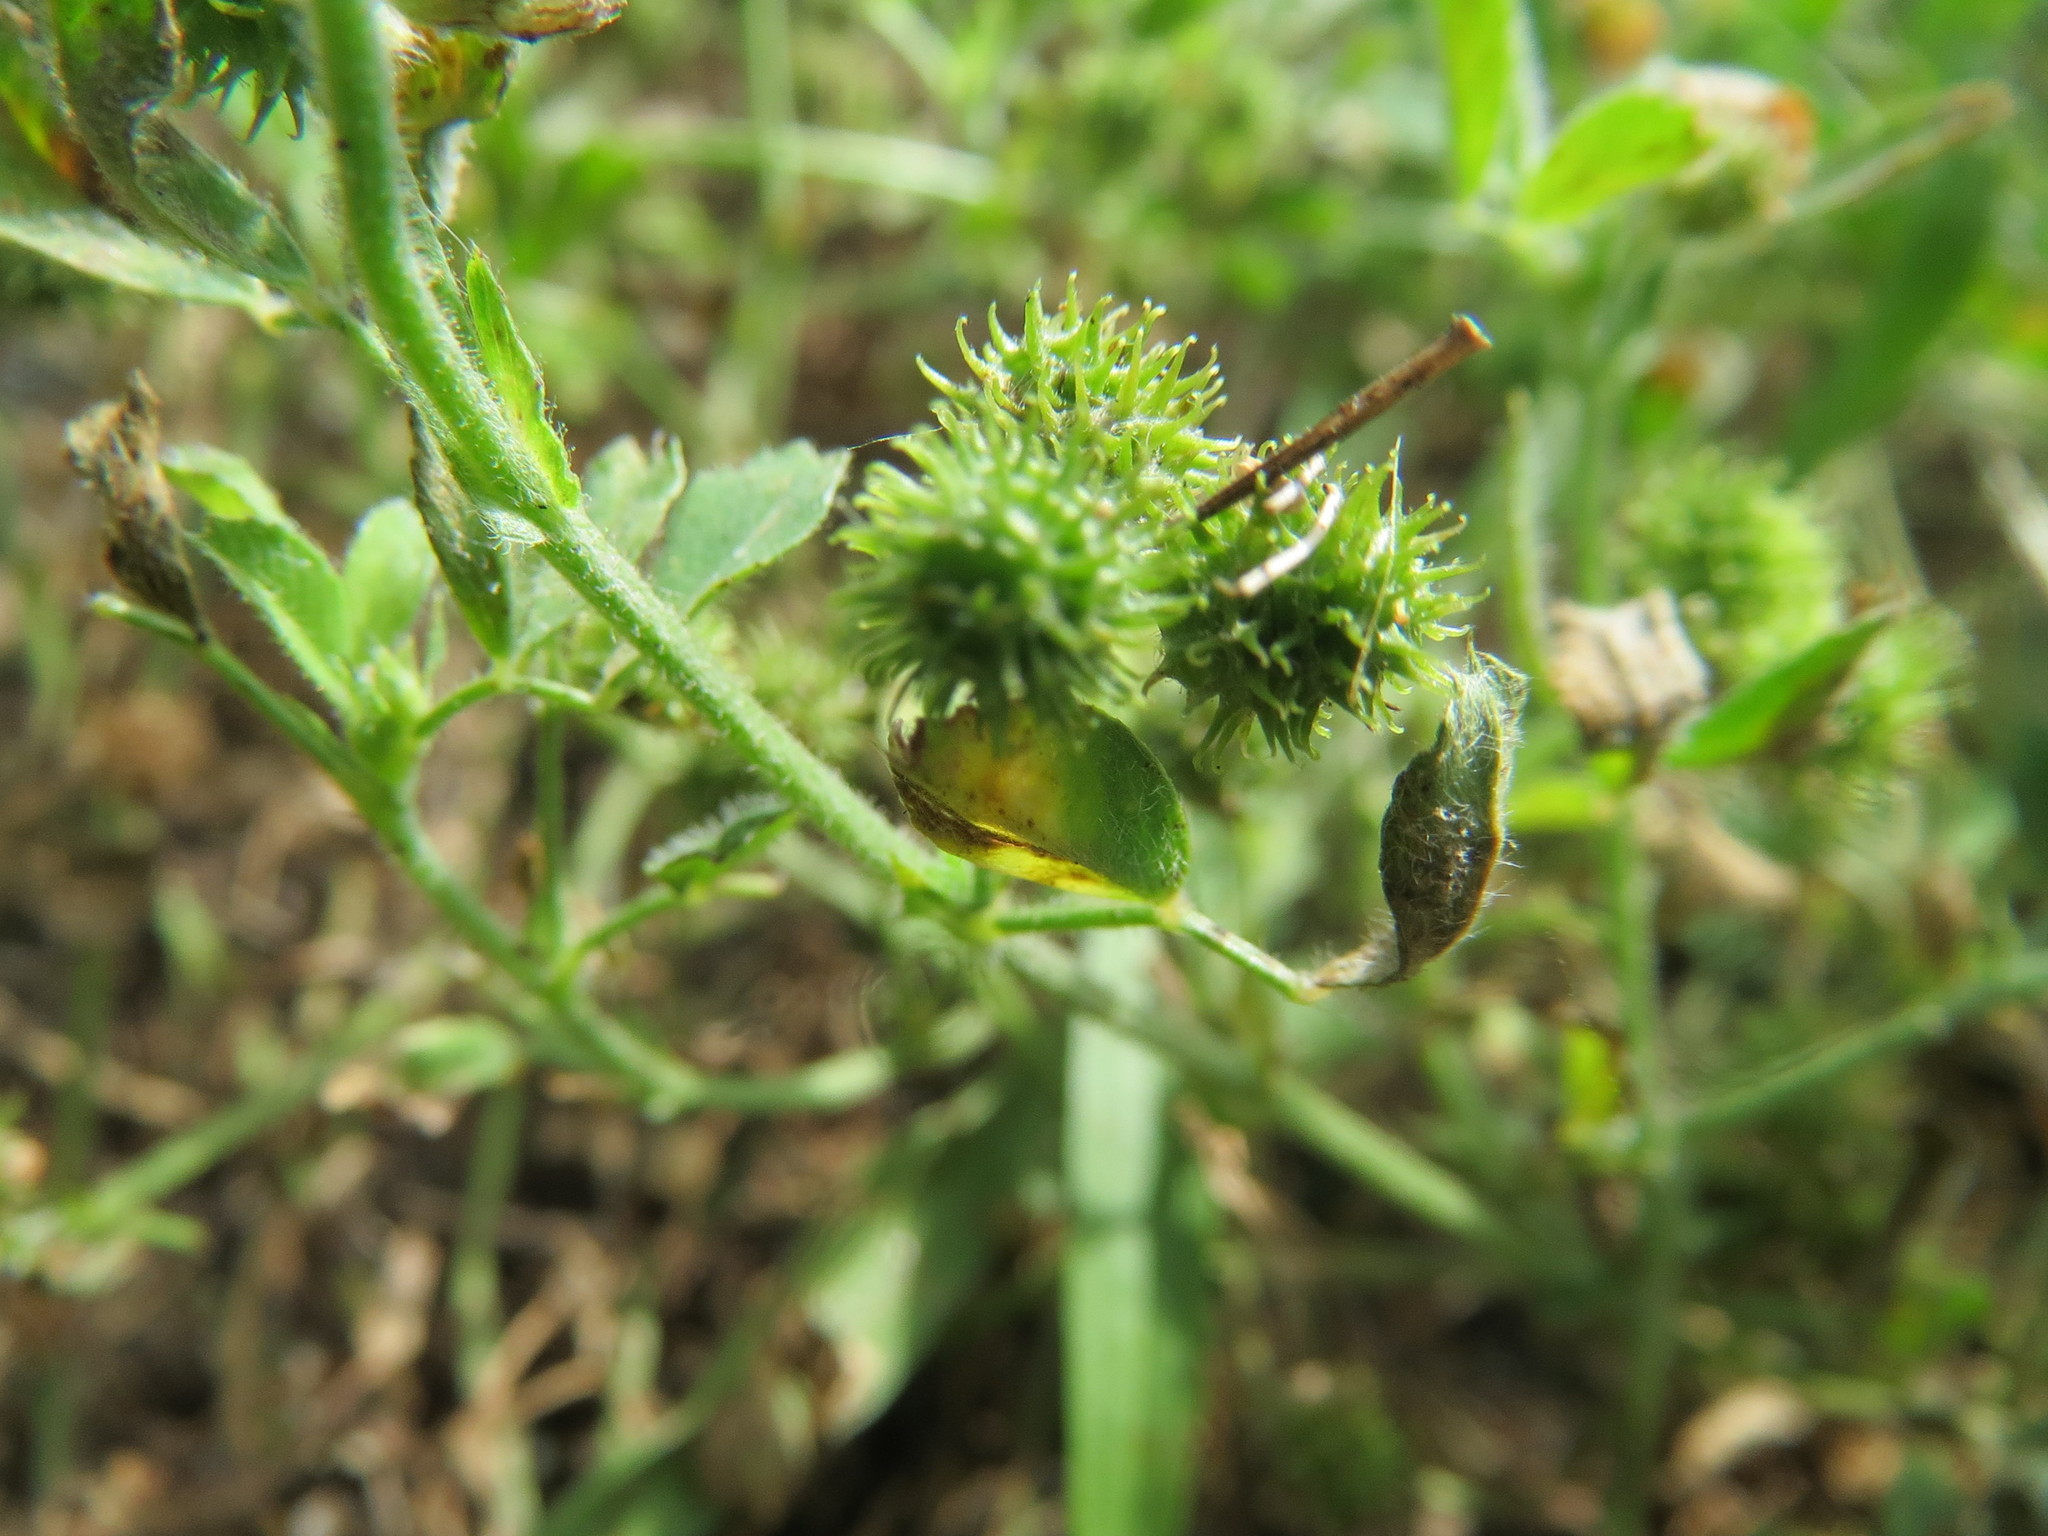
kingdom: Plantae
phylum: Tracheophyta
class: Magnoliopsida
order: Fabales
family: Fabaceae
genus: Medicago
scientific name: Medicago minima
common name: Little bur-clover
